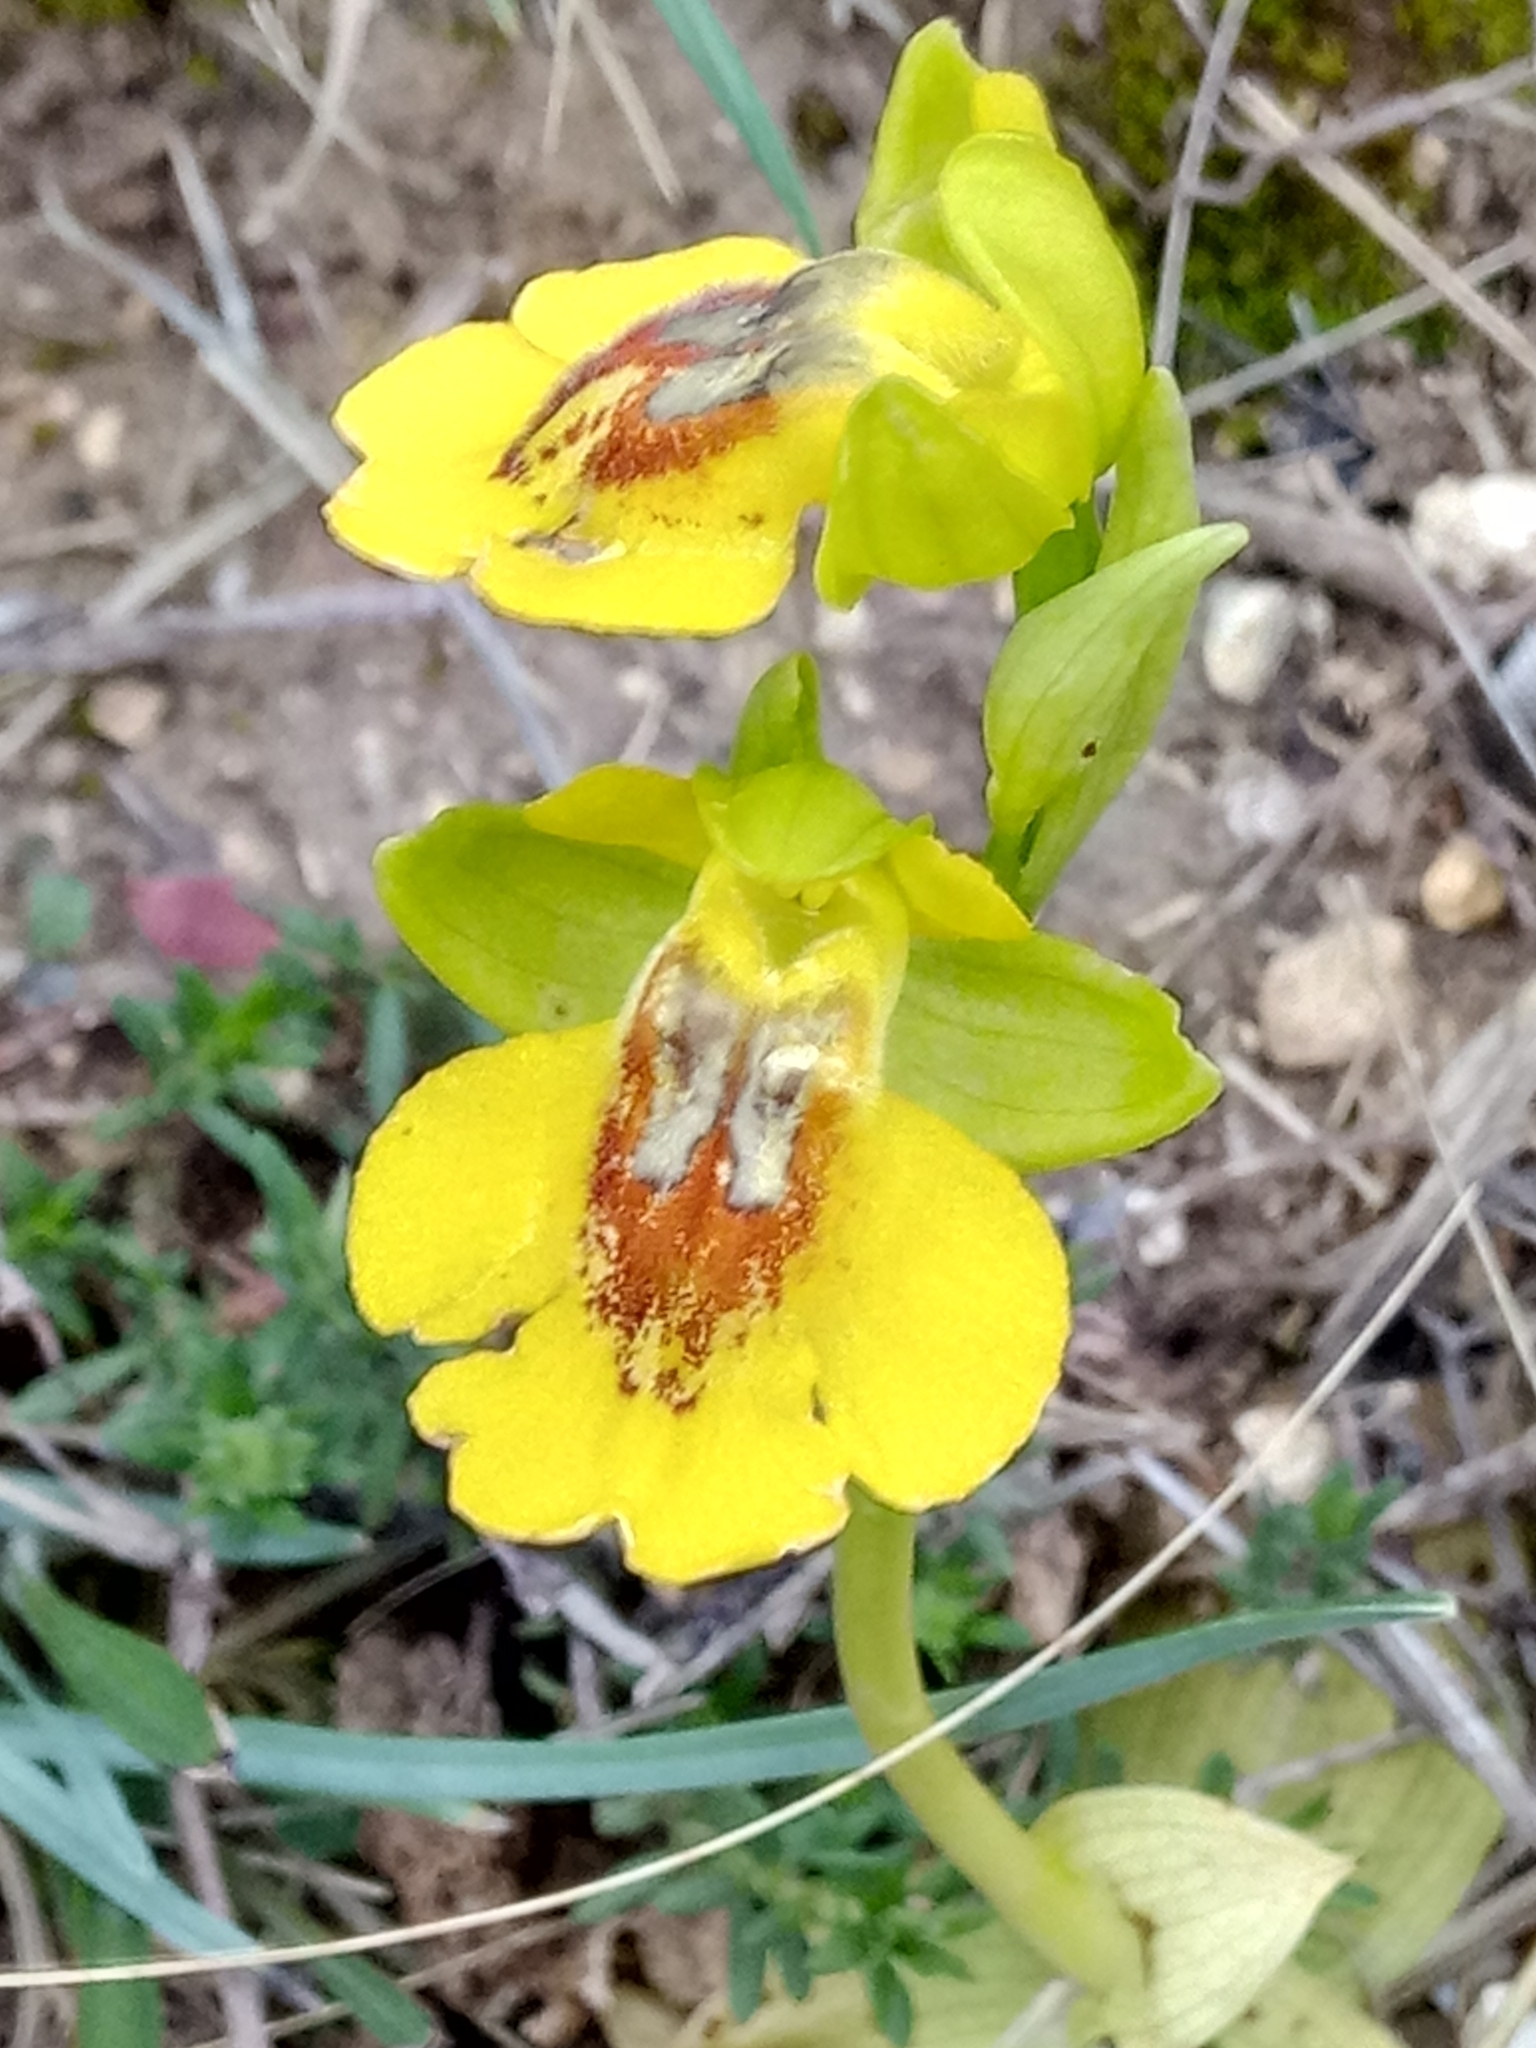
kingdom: Plantae
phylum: Tracheophyta
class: Liliopsida
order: Asparagales
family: Orchidaceae
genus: Ophrys
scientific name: Ophrys lutea
